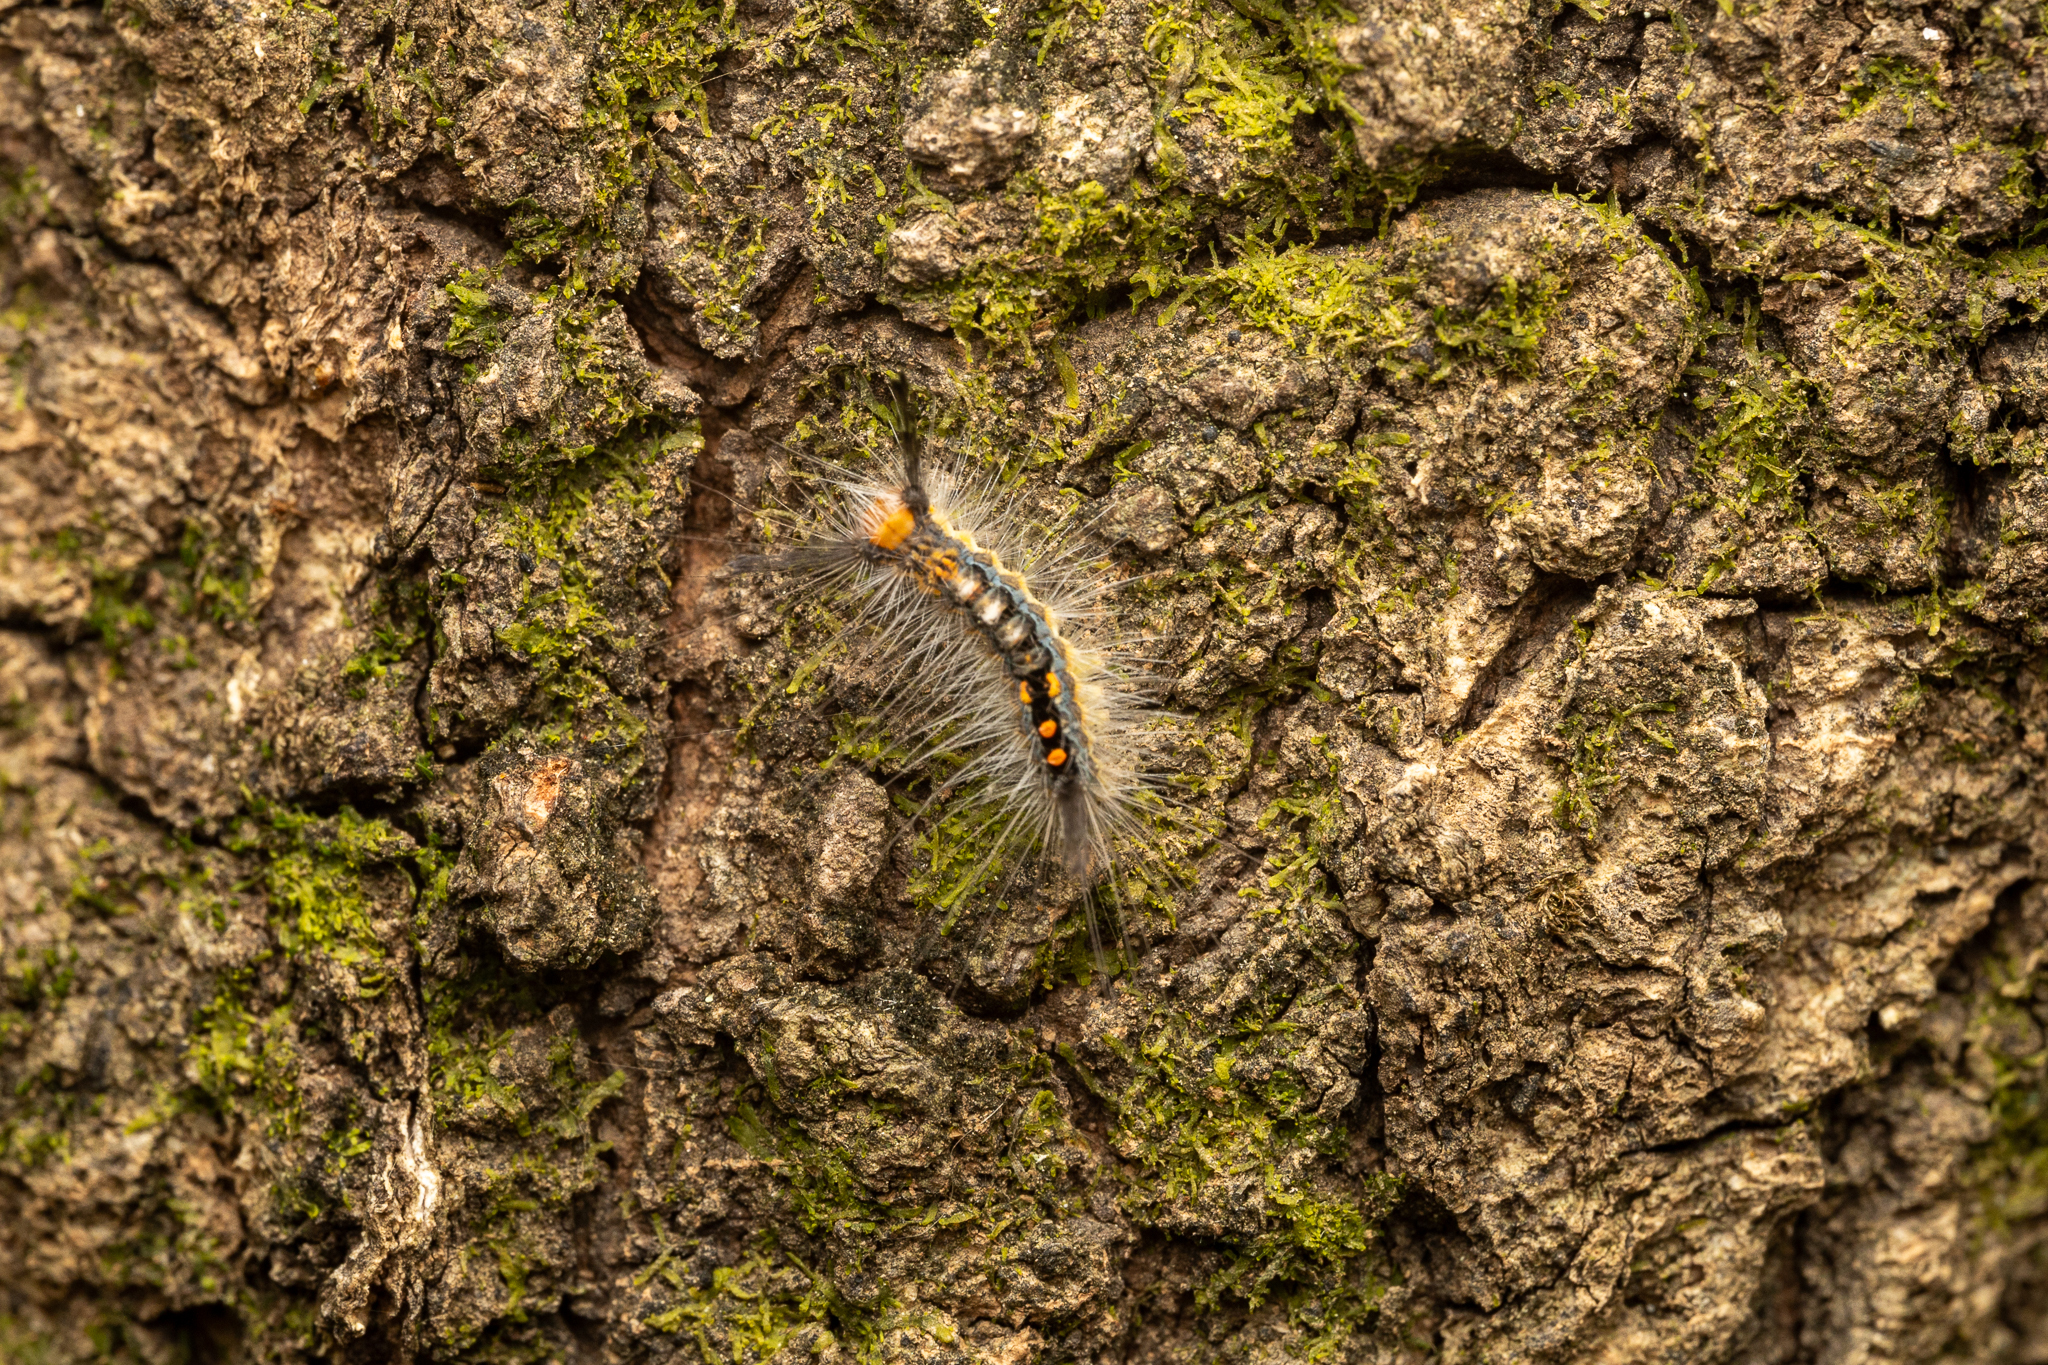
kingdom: Animalia
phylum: Arthropoda
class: Insecta
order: Lepidoptera
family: Erebidae
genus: Orgyia
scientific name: Orgyia detrita
